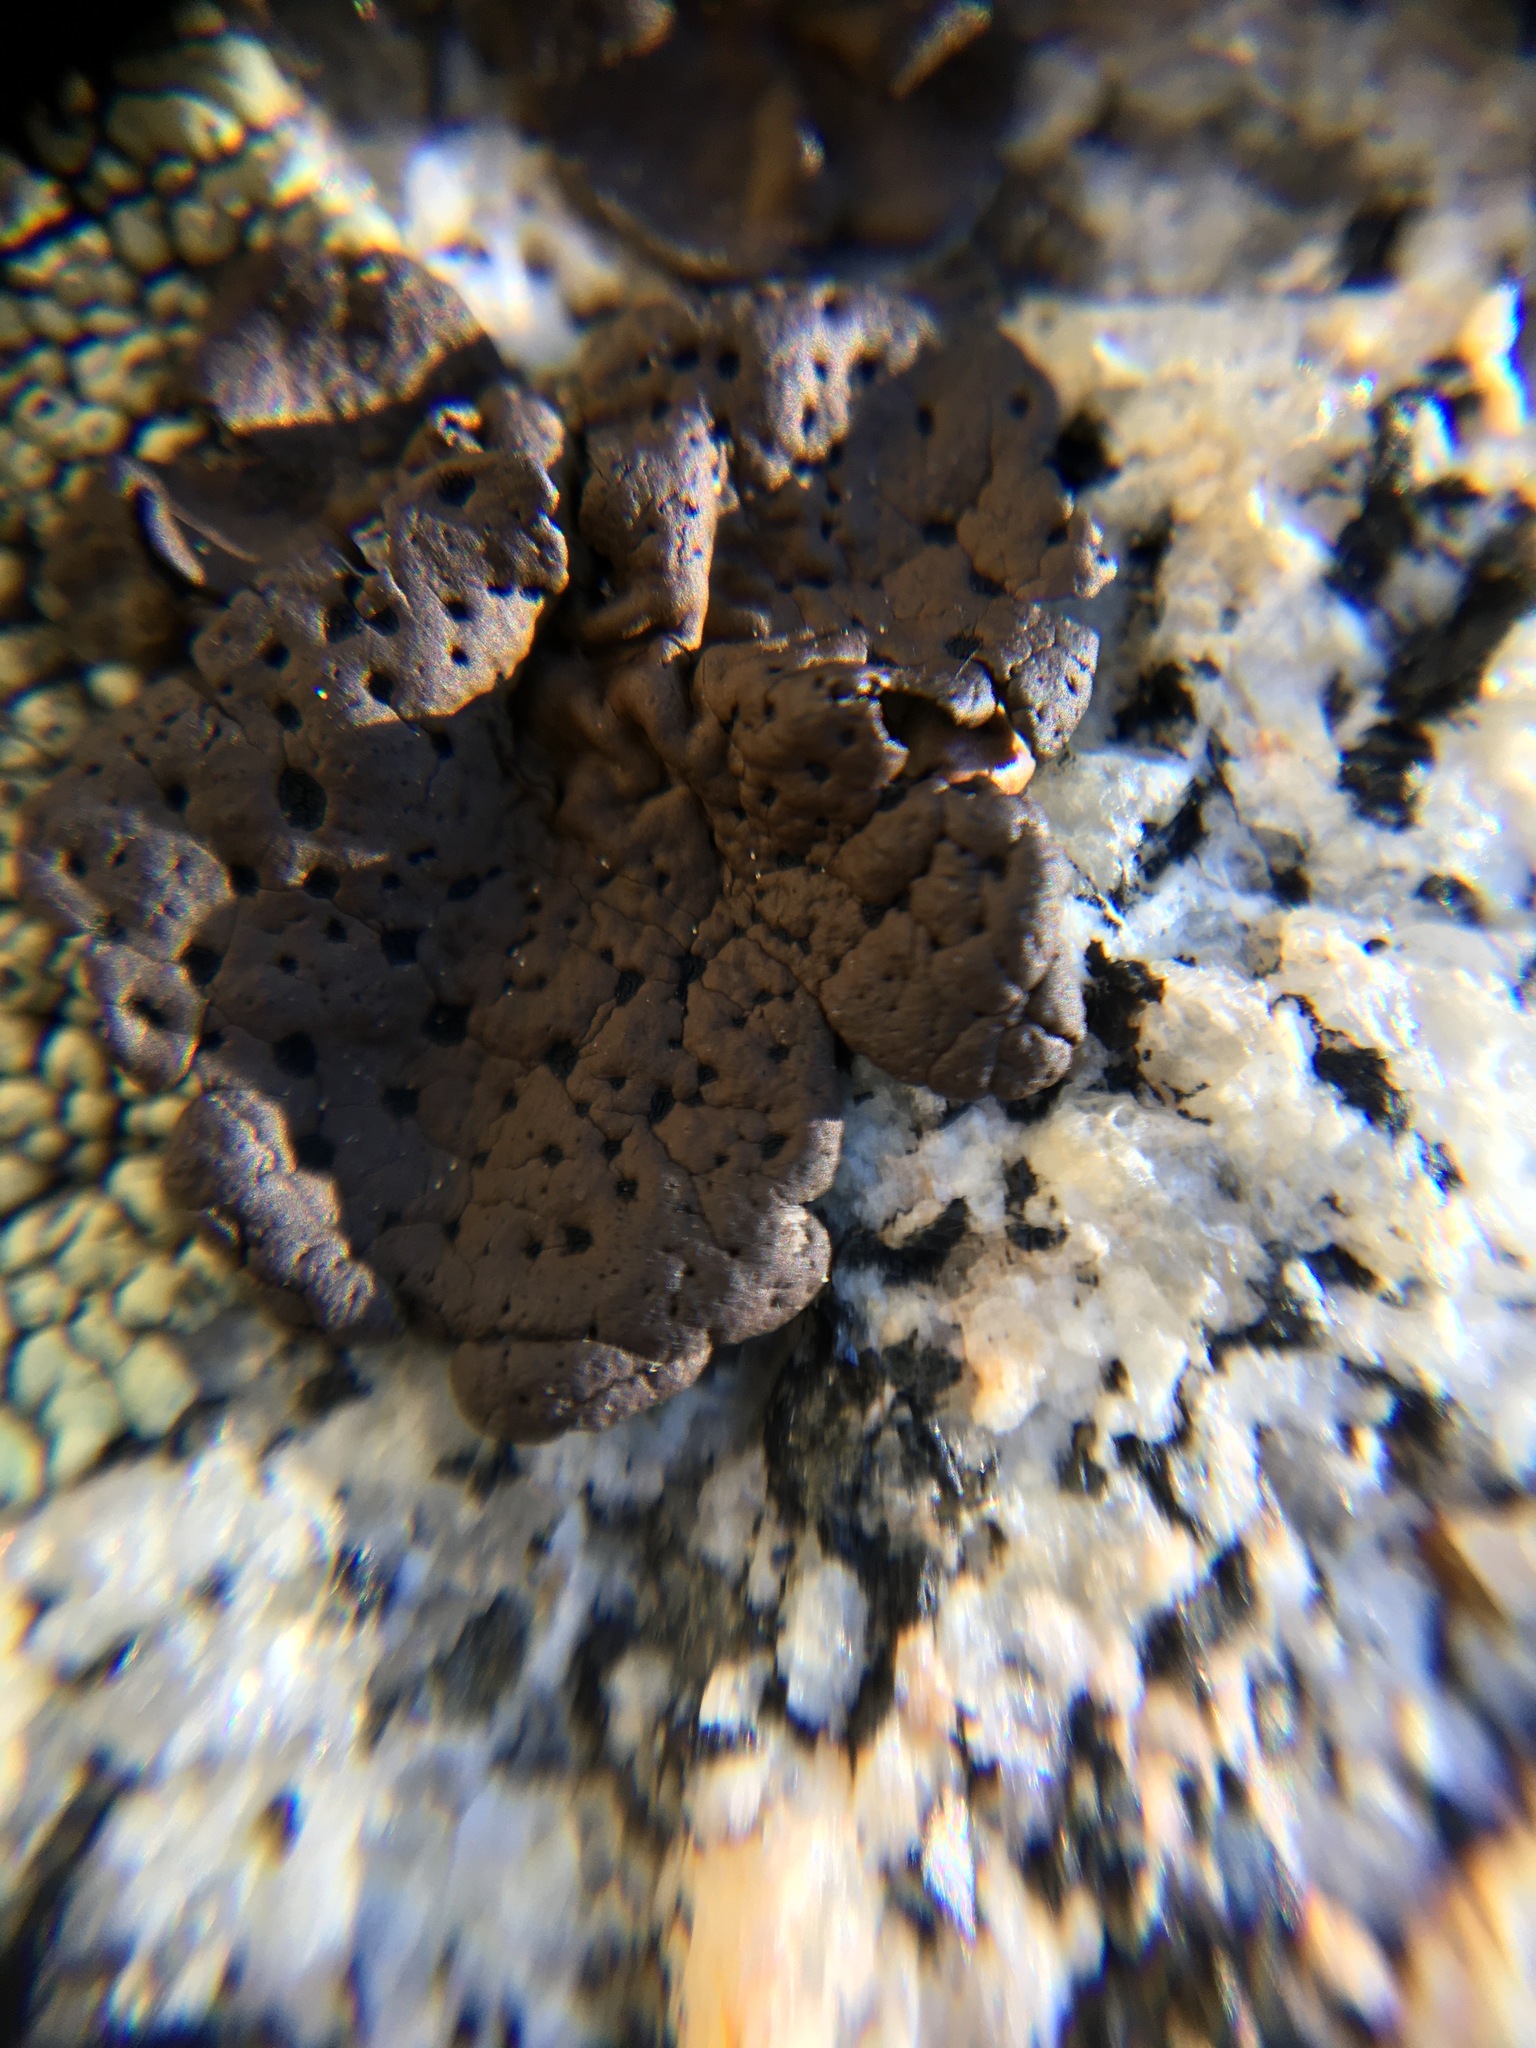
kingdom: Fungi
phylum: Ascomycota
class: Lecanoromycetes
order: Umbilicariales
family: Umbilicariaceae
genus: Umbilicaria
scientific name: Umbilicaria phaea
